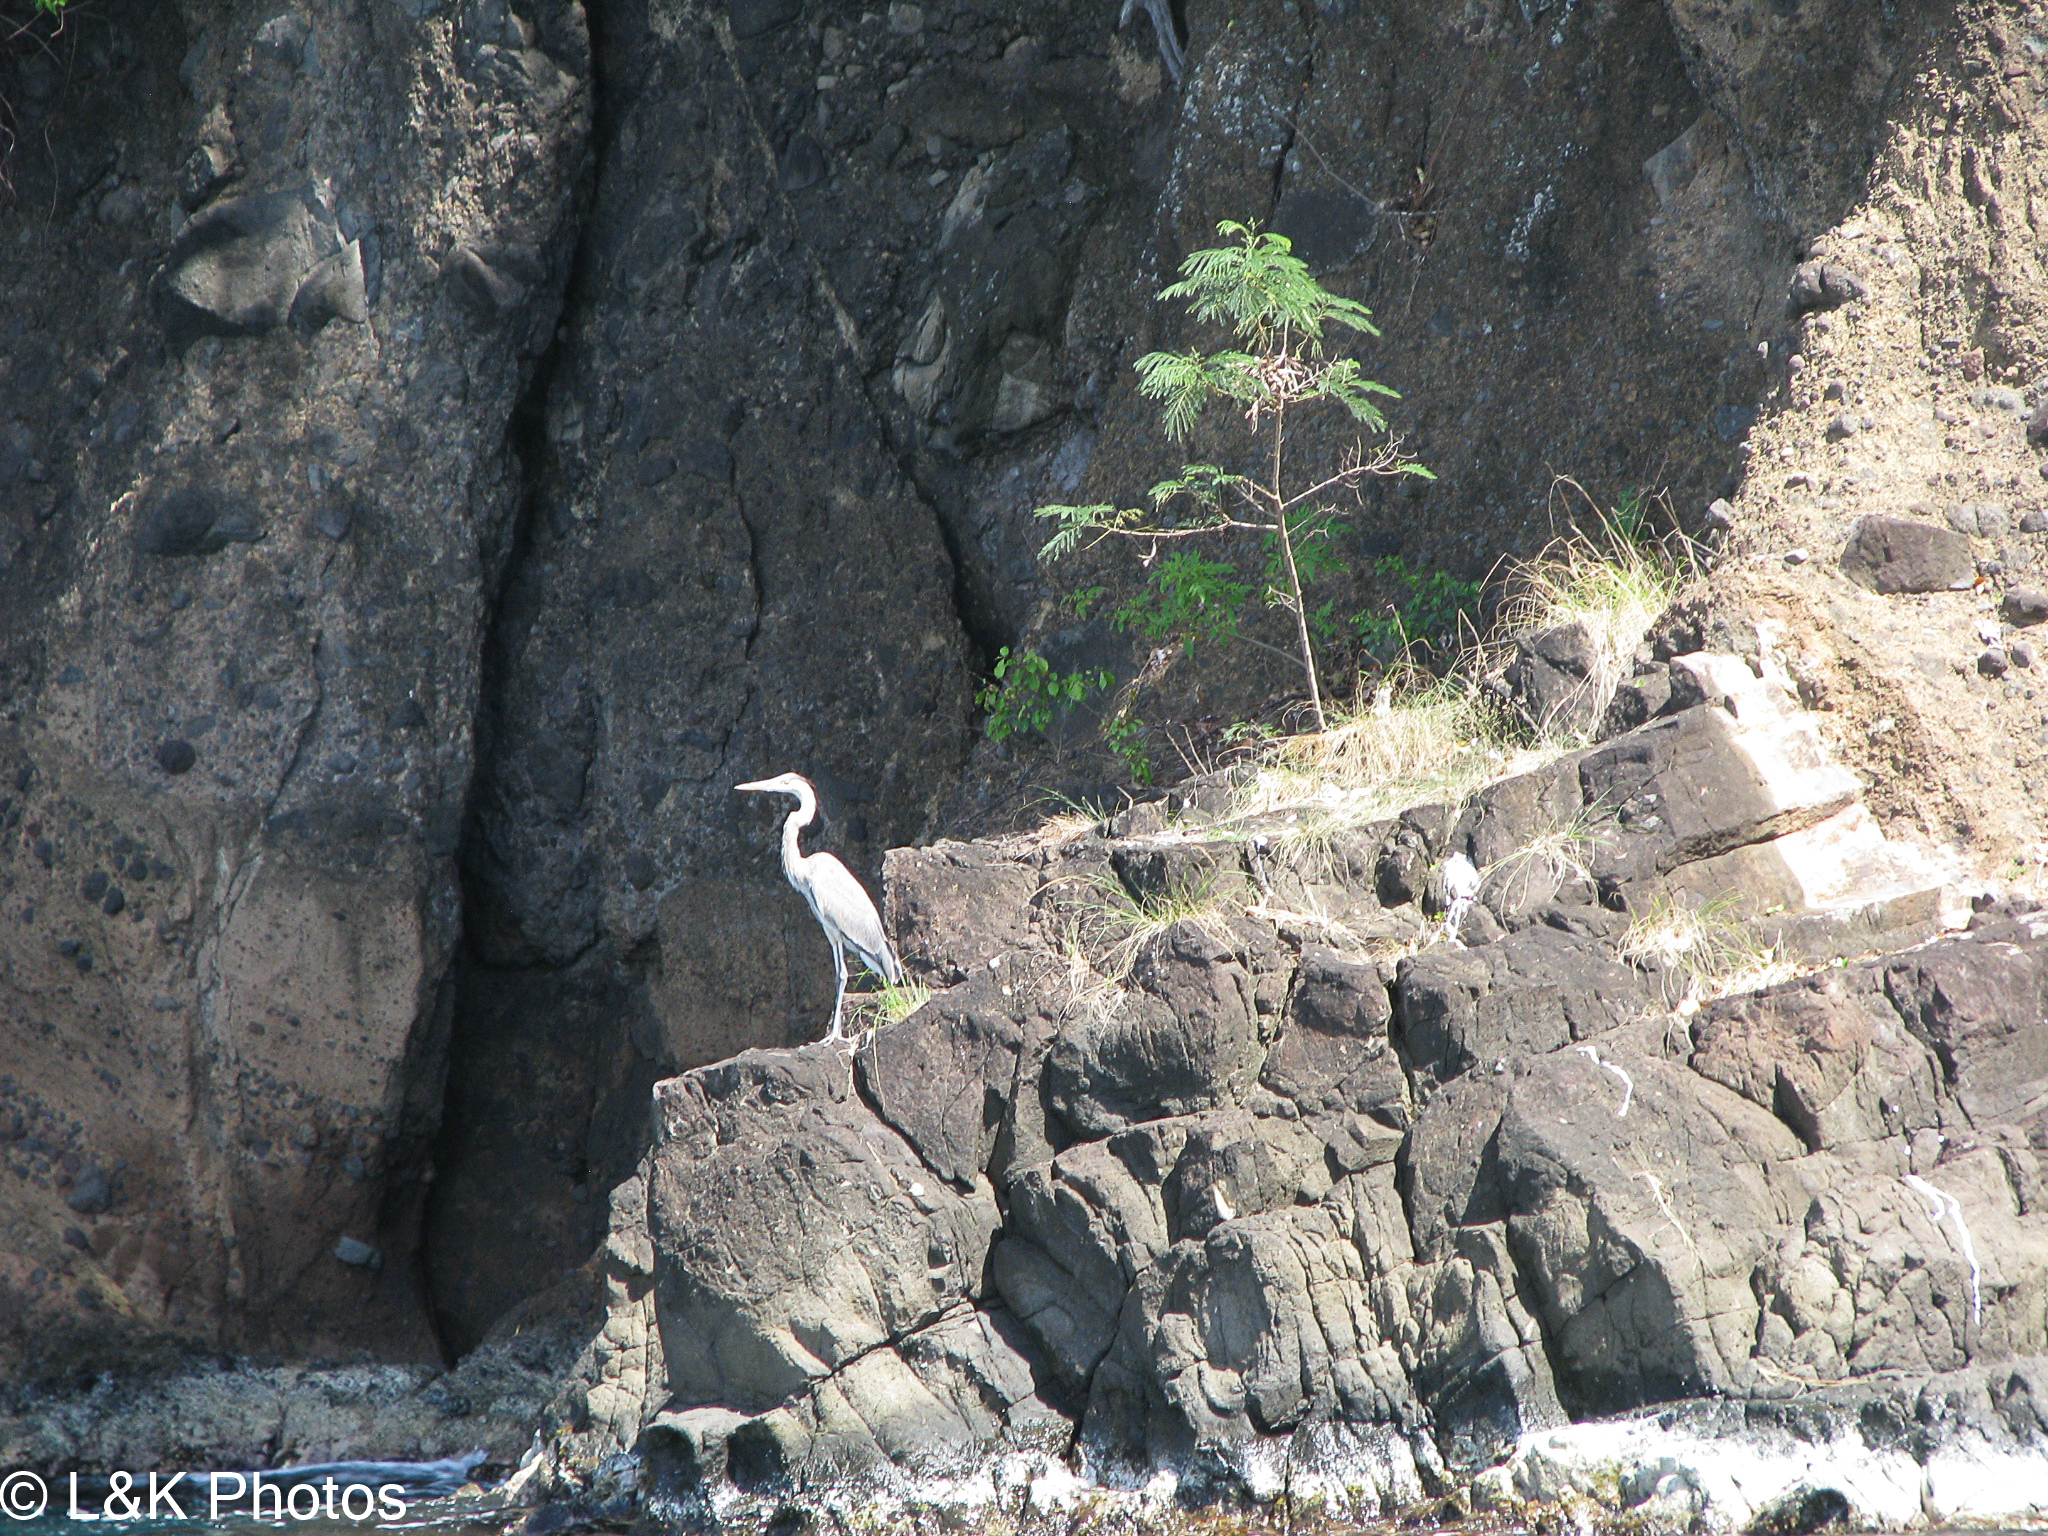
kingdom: Animalia
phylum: Chordata
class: Aves
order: Pelecaniformes
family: Ardeidae
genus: Ardea
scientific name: Ardea herodias
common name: Great blue heron
